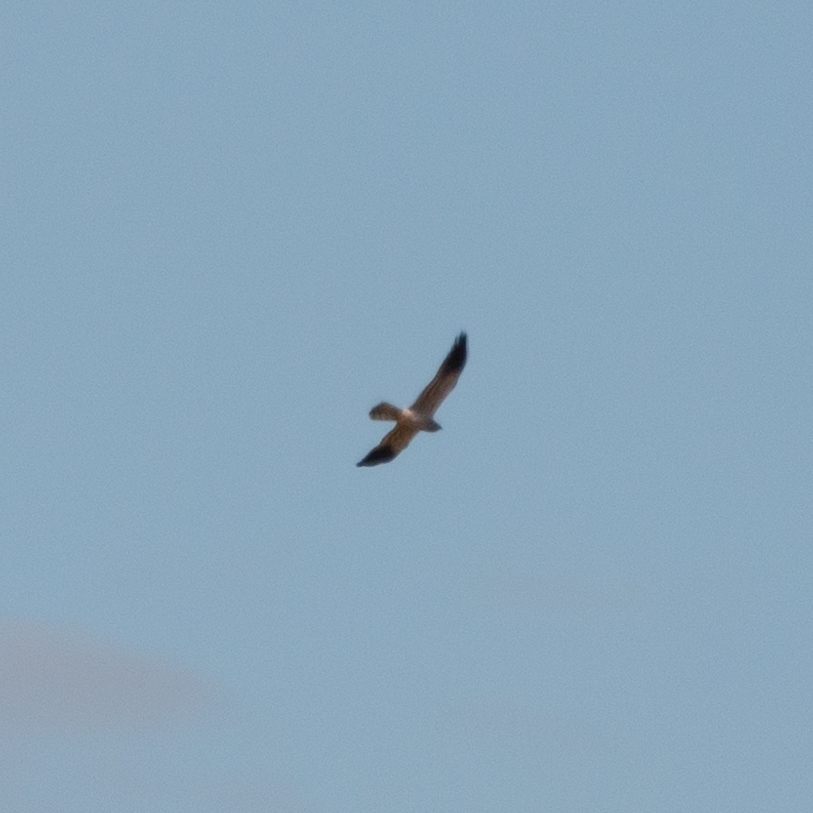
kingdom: Animalia
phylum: Chordata
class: Aves
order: Accipitriformes
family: Accipitridae
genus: Circus
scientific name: Circus pygargus
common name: Montagu's harrier
